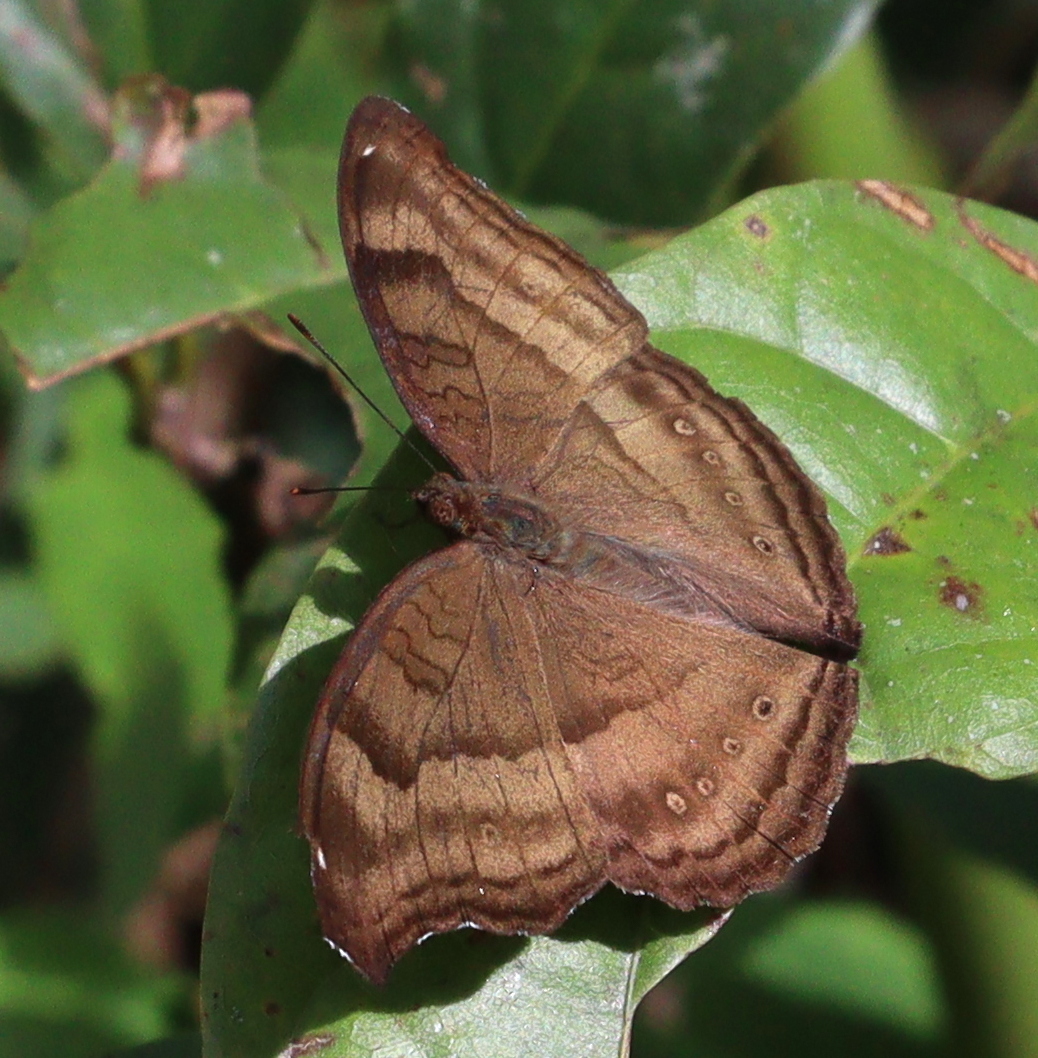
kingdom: Animalia
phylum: Arthropoda
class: Insecta
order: Lepidoptera
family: Nymphalidae
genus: Junonia
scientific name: Junonia iphita
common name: Chocolate pansy
